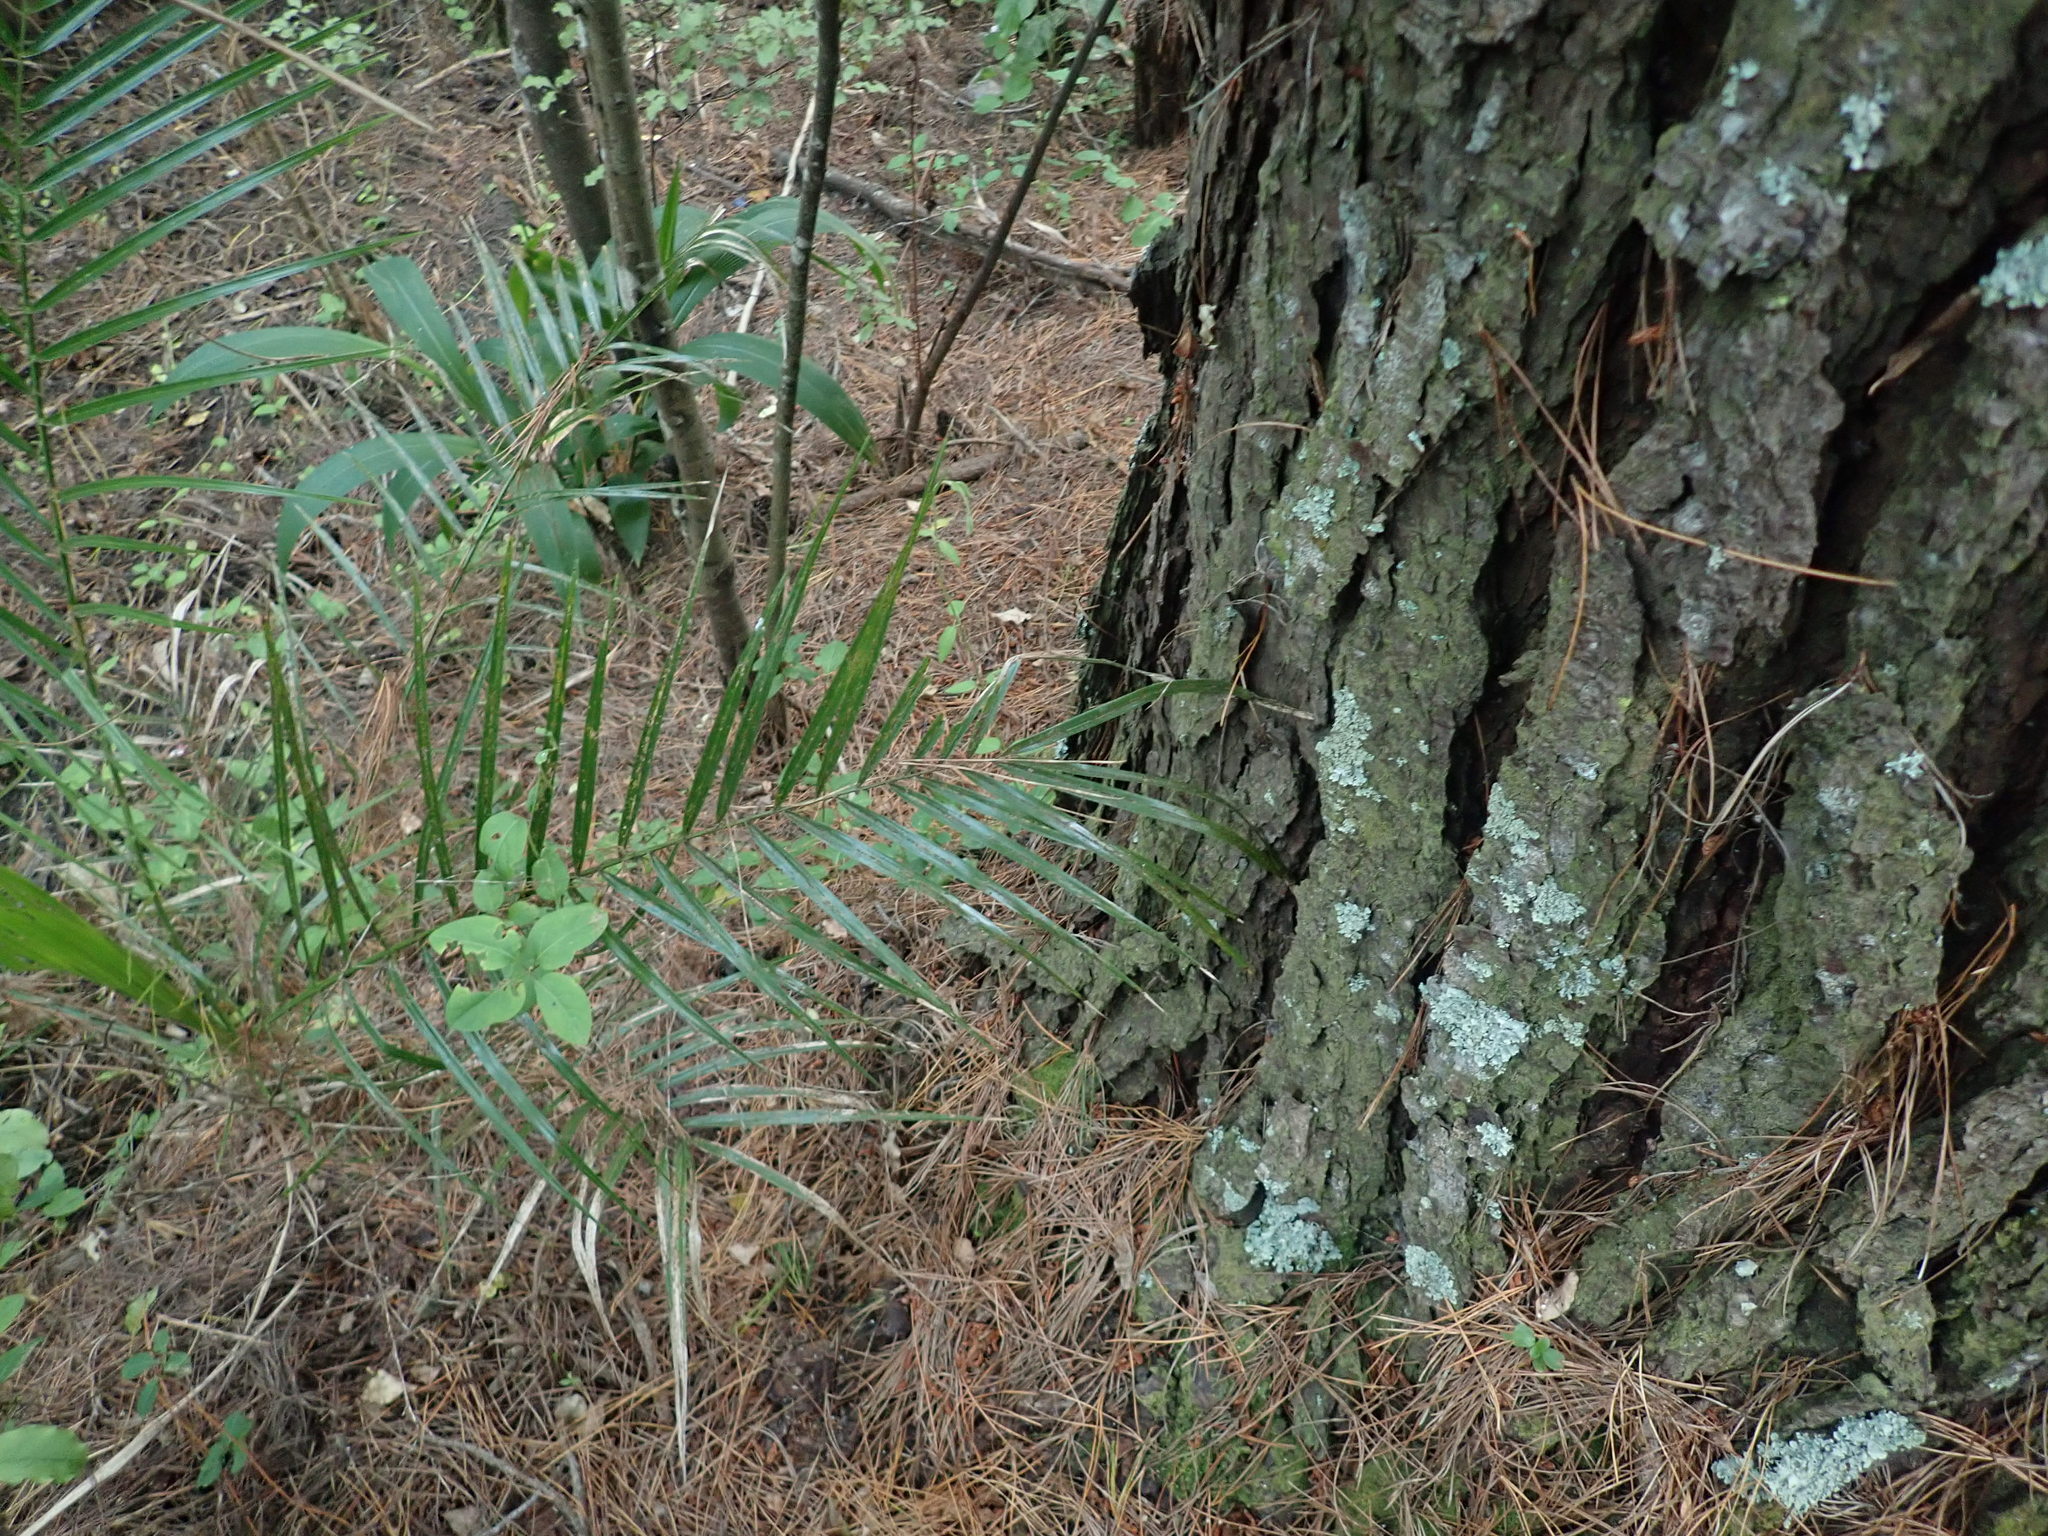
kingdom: Plantae
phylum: Tracheophyta
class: Magnoliopsida
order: Dipsacales
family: Caprifoliaceae
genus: Lonicera
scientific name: Lonicera japonica
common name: Japanese honeysuckle
